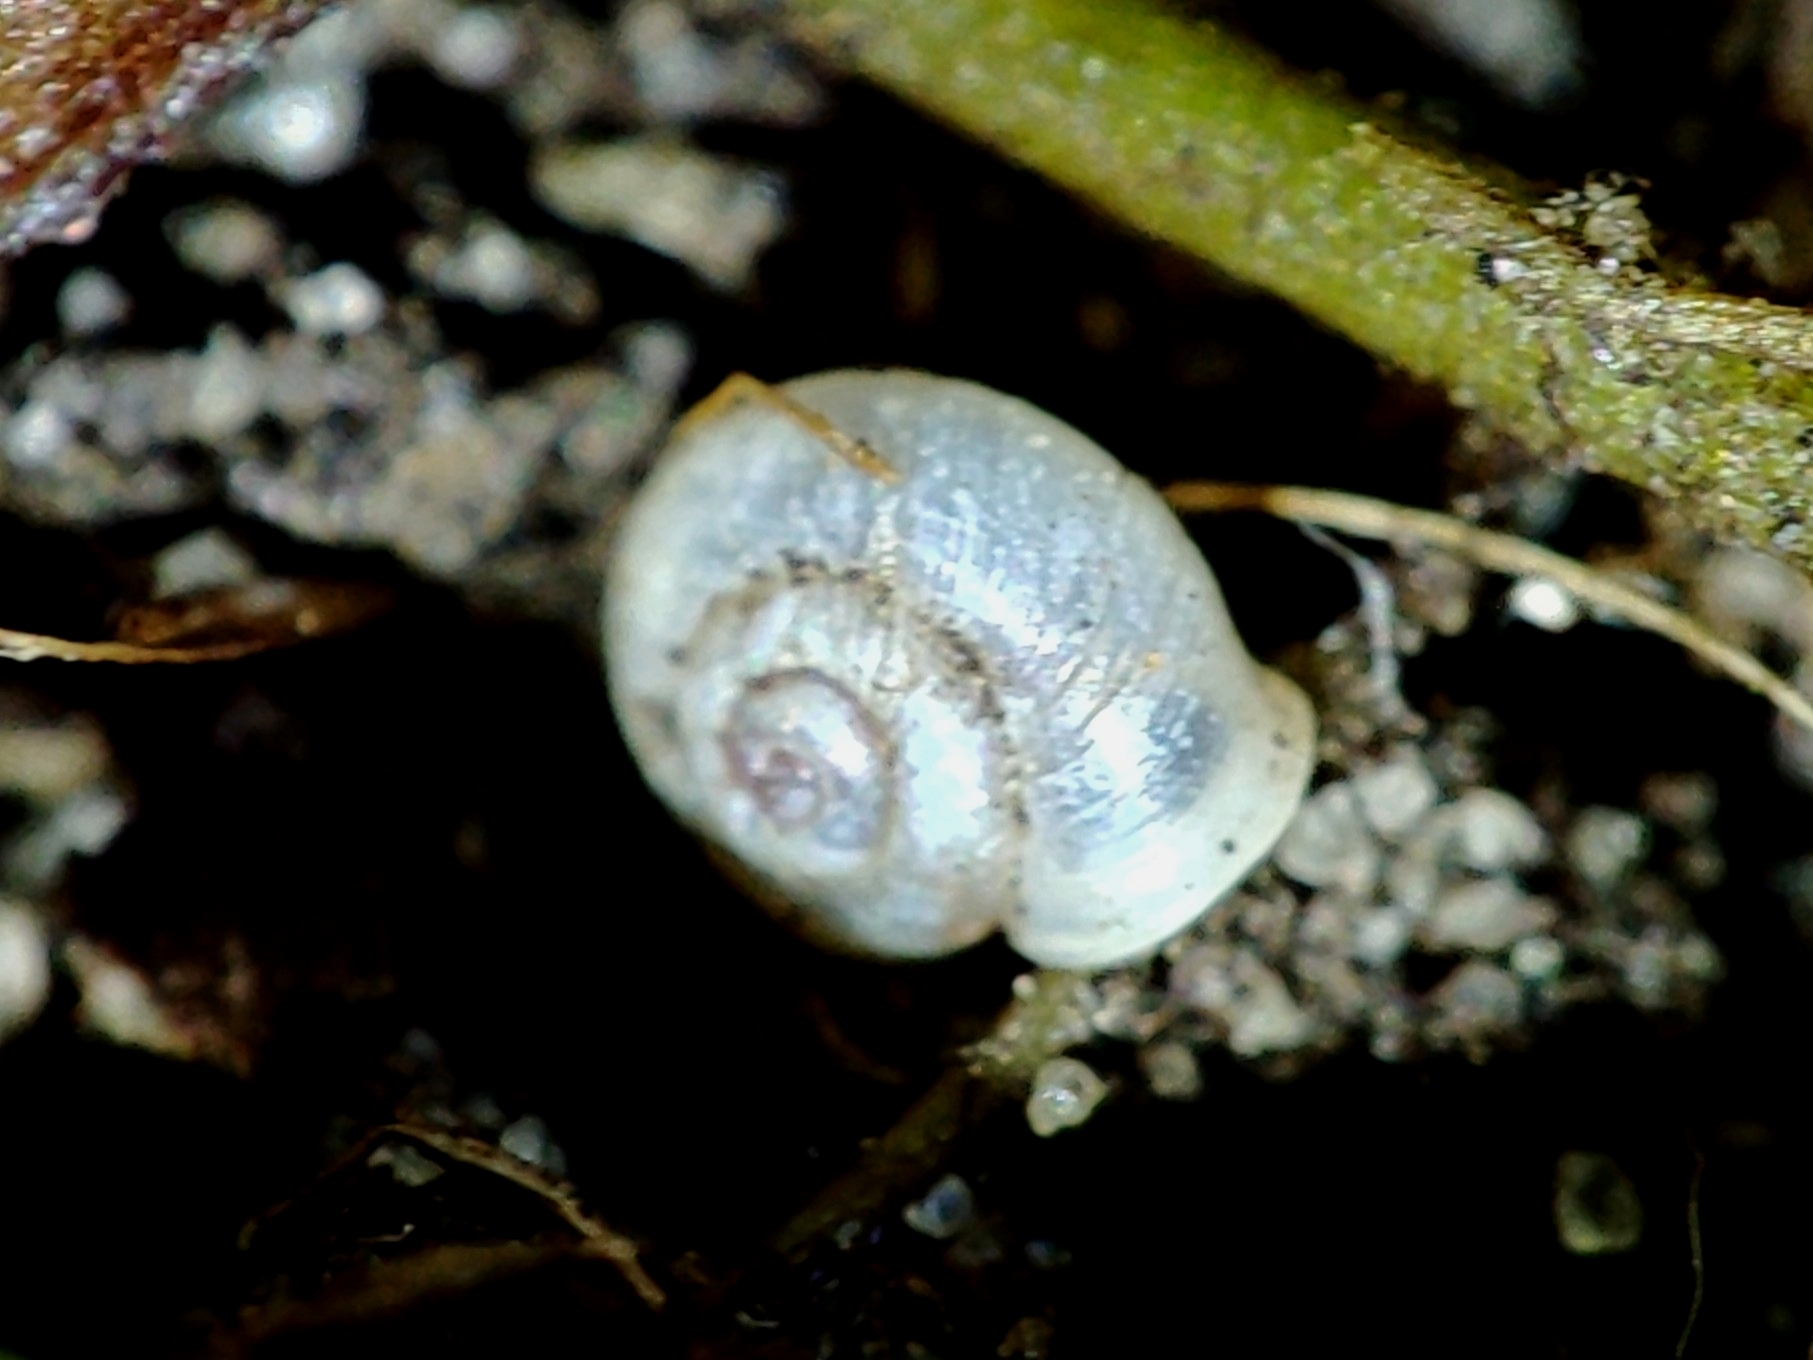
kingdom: Animalia
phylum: Mollusca
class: Gastropoda
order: Stylommatophora
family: Valloniidae
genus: Vallonia
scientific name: Vallonia pulchella
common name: Smooth grass snail
